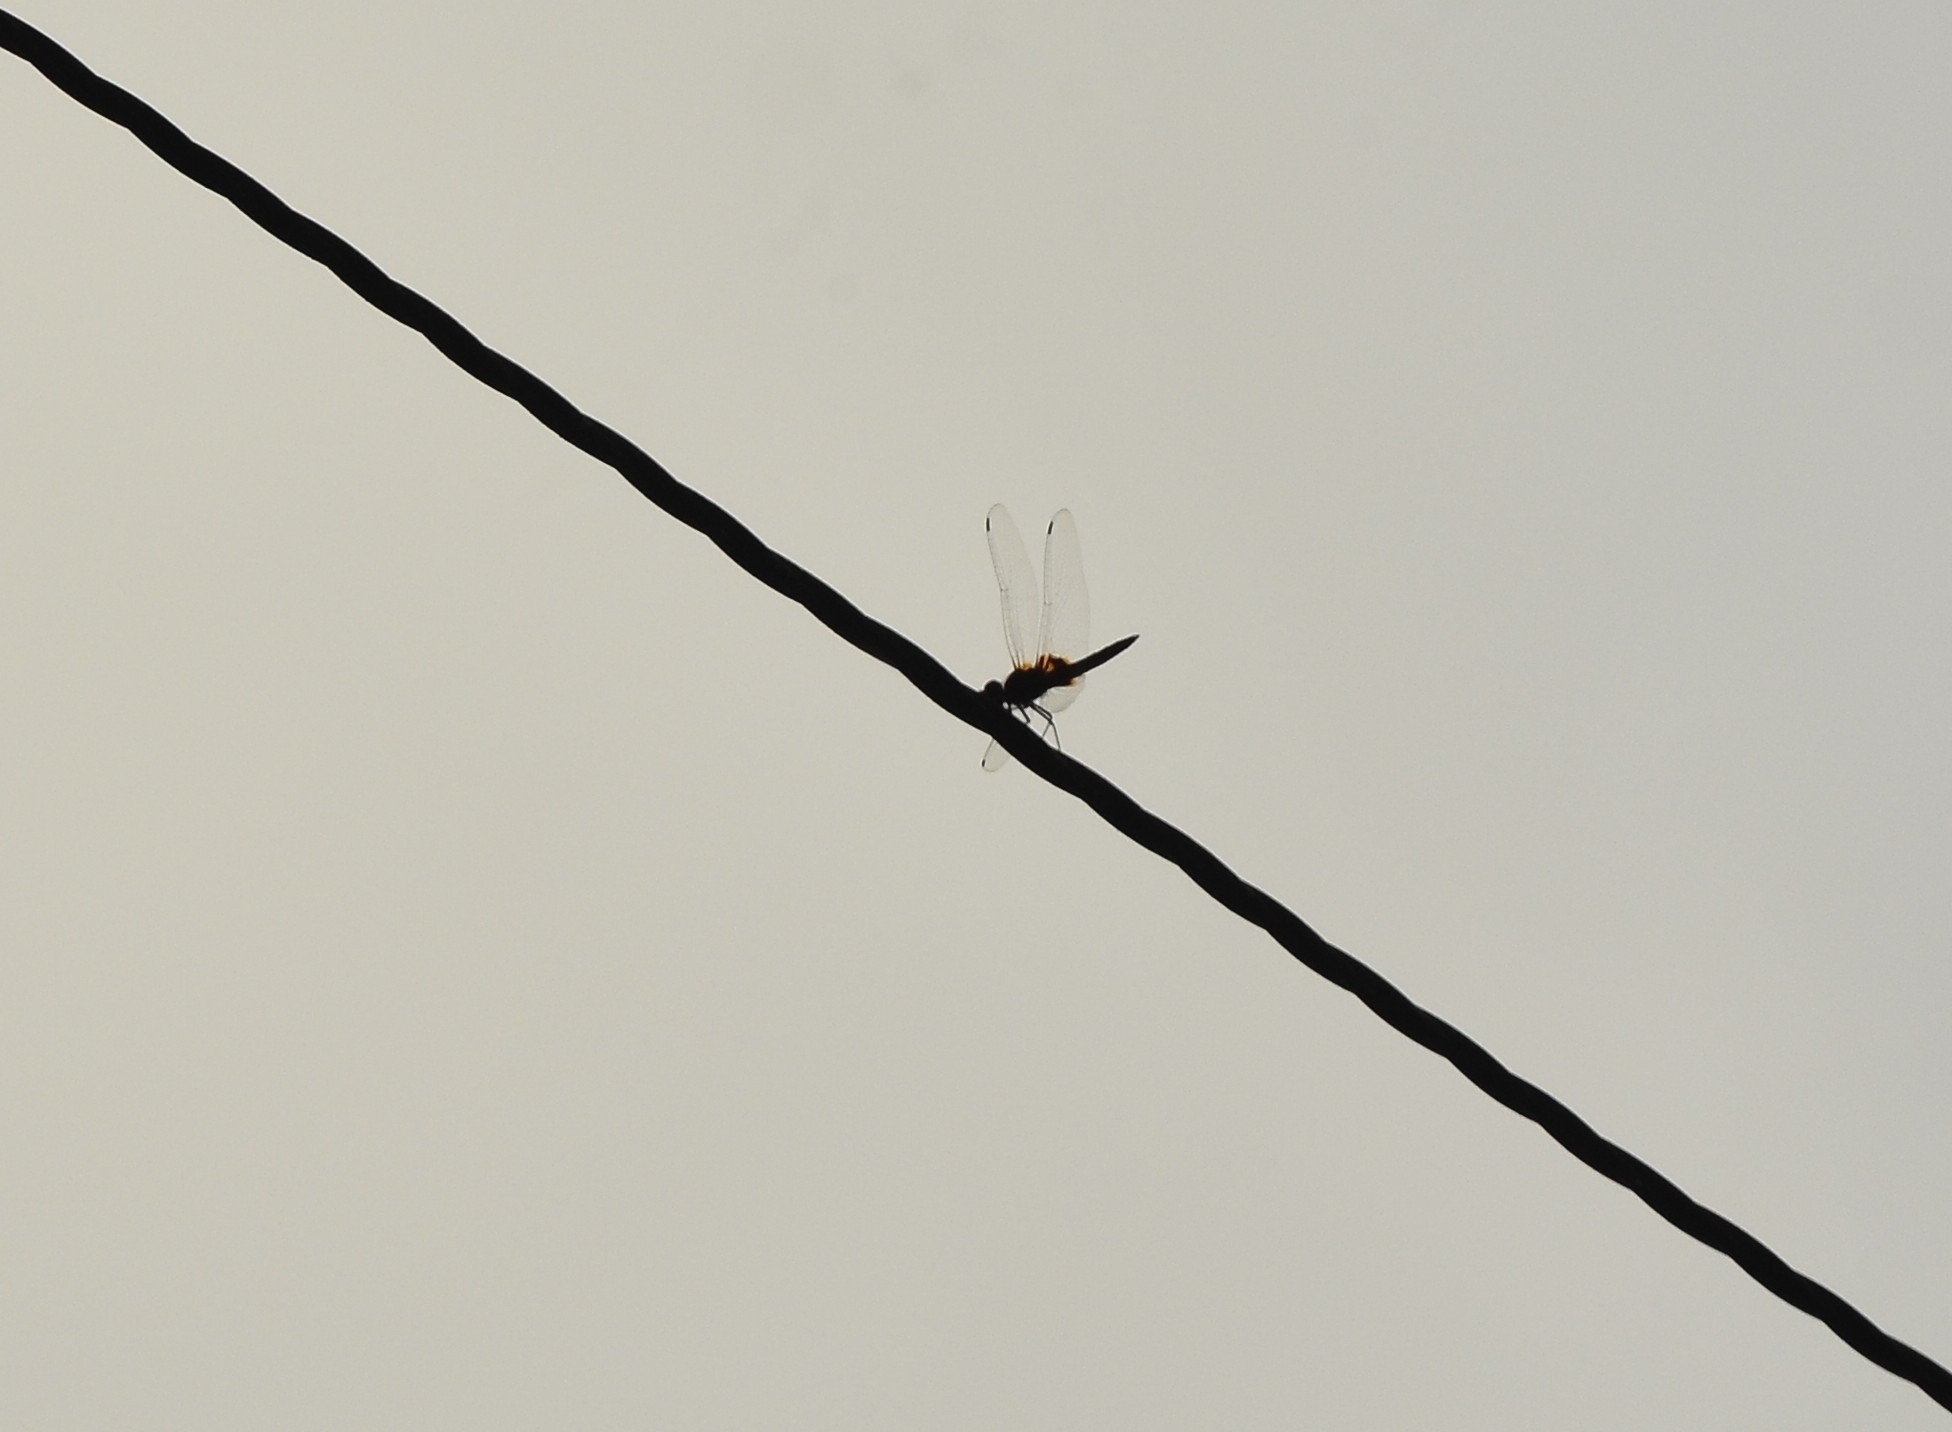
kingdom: Animalia
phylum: Arthropoda
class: Insecta
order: Odonata
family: Libellulidae
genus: Urothemis
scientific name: Urothemis signata
